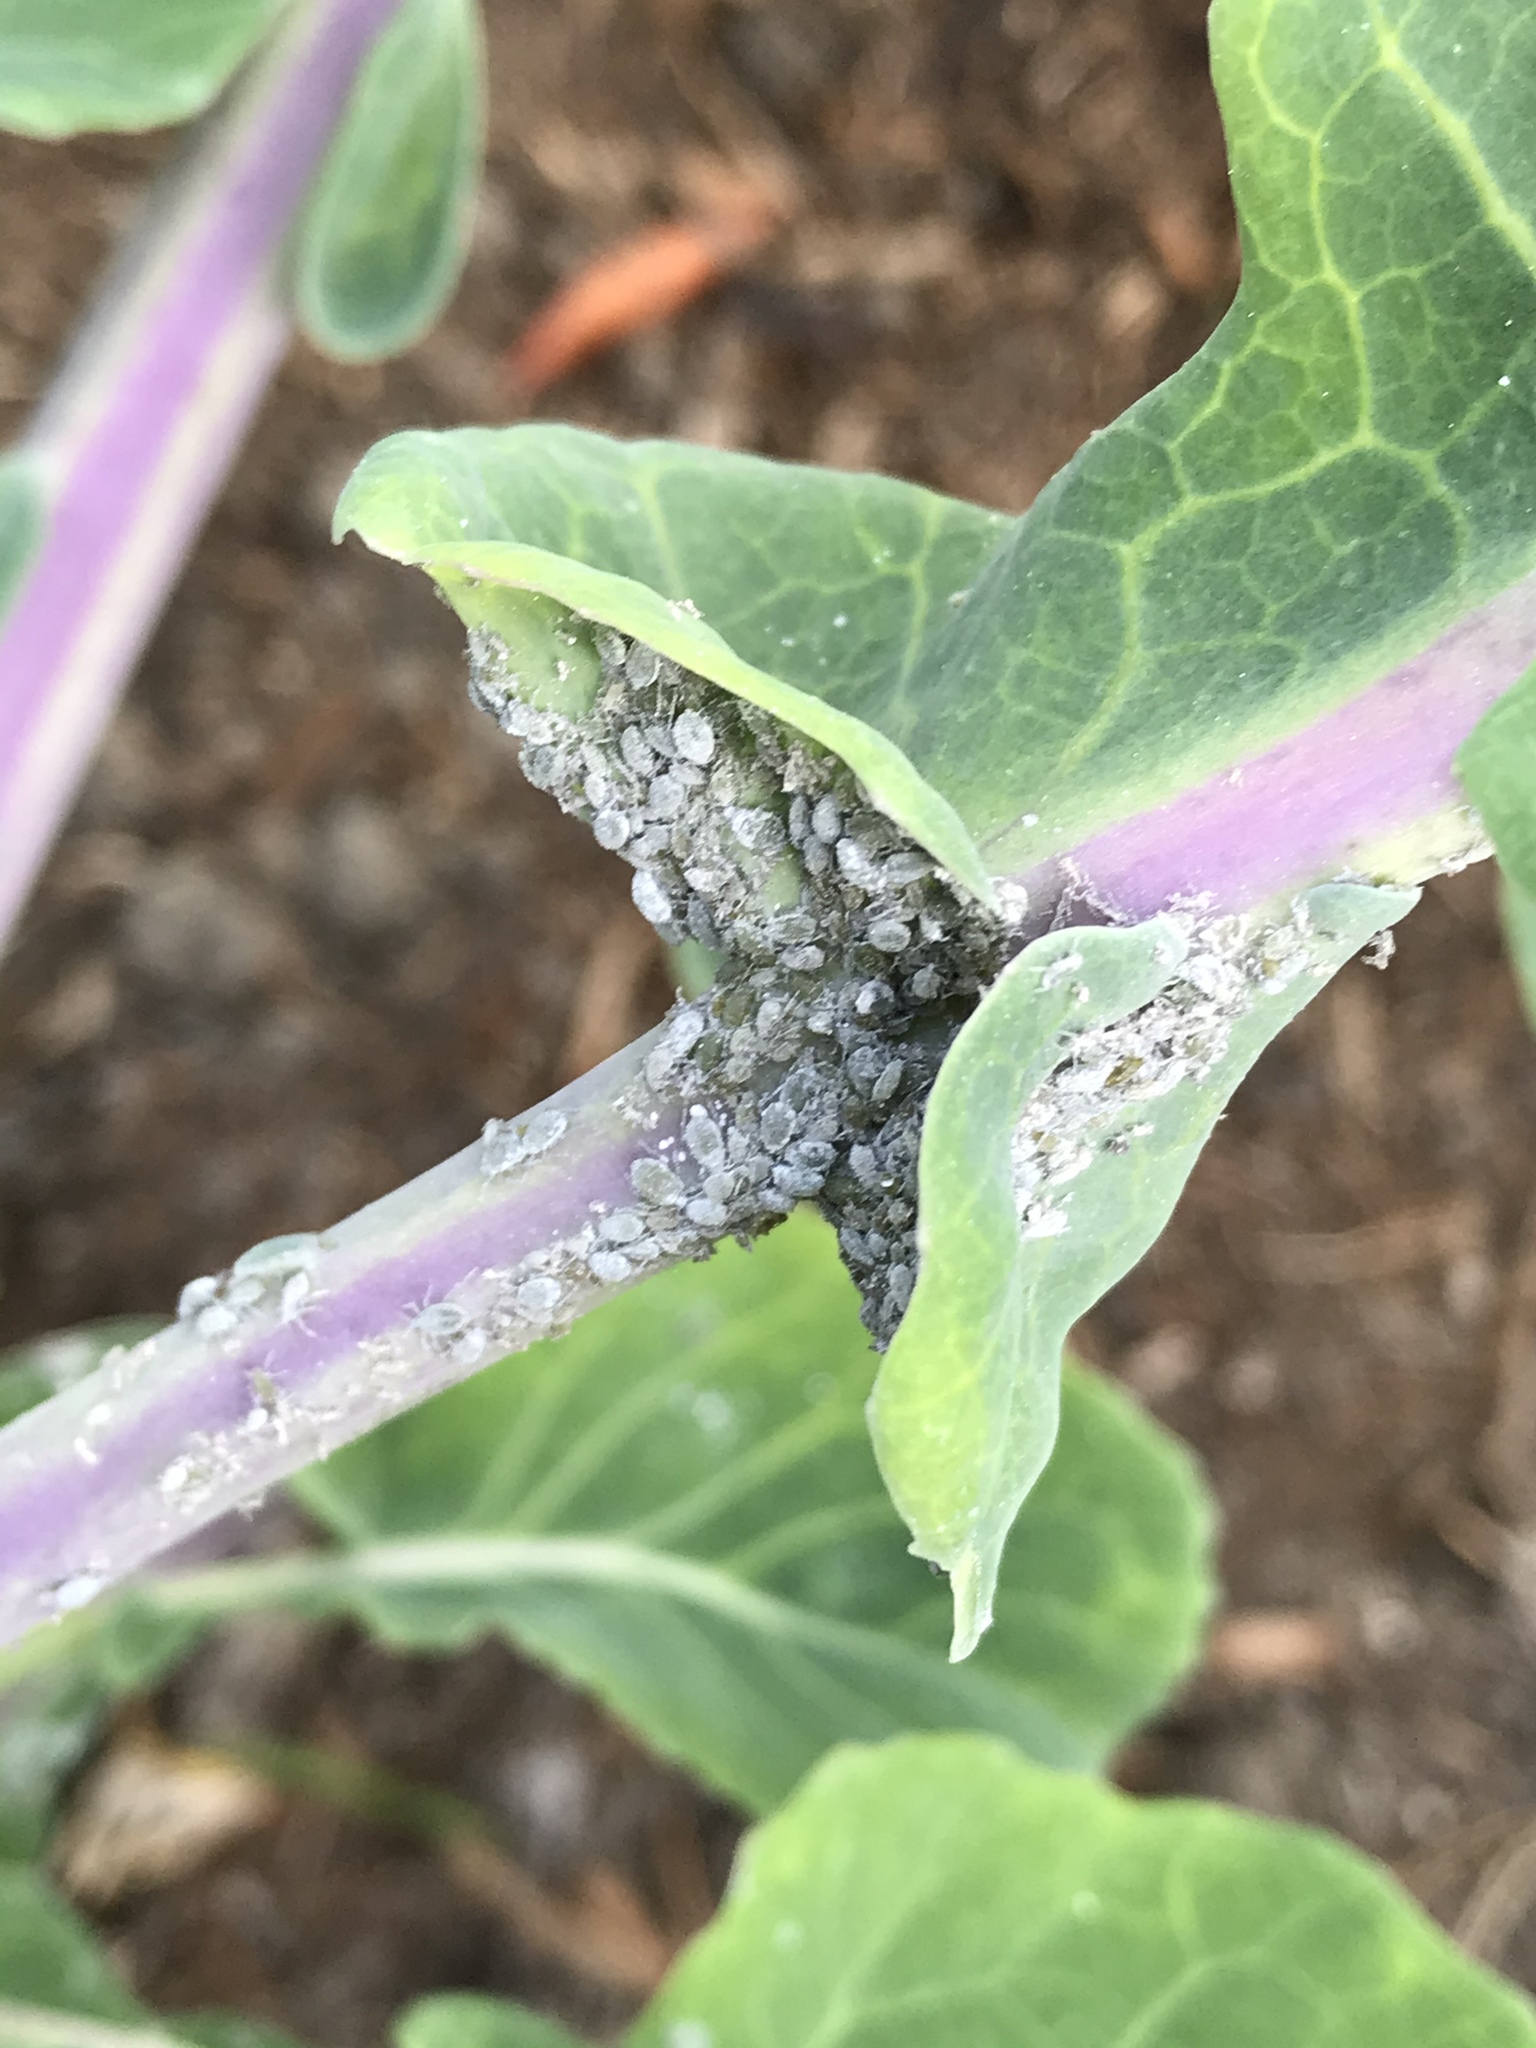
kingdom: Animalia
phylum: Arthropoda
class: Insecta
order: Hemiptera
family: Aphididae
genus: Brevicoryne
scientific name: Brevicoryne brassicae
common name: Cabbage aphid
